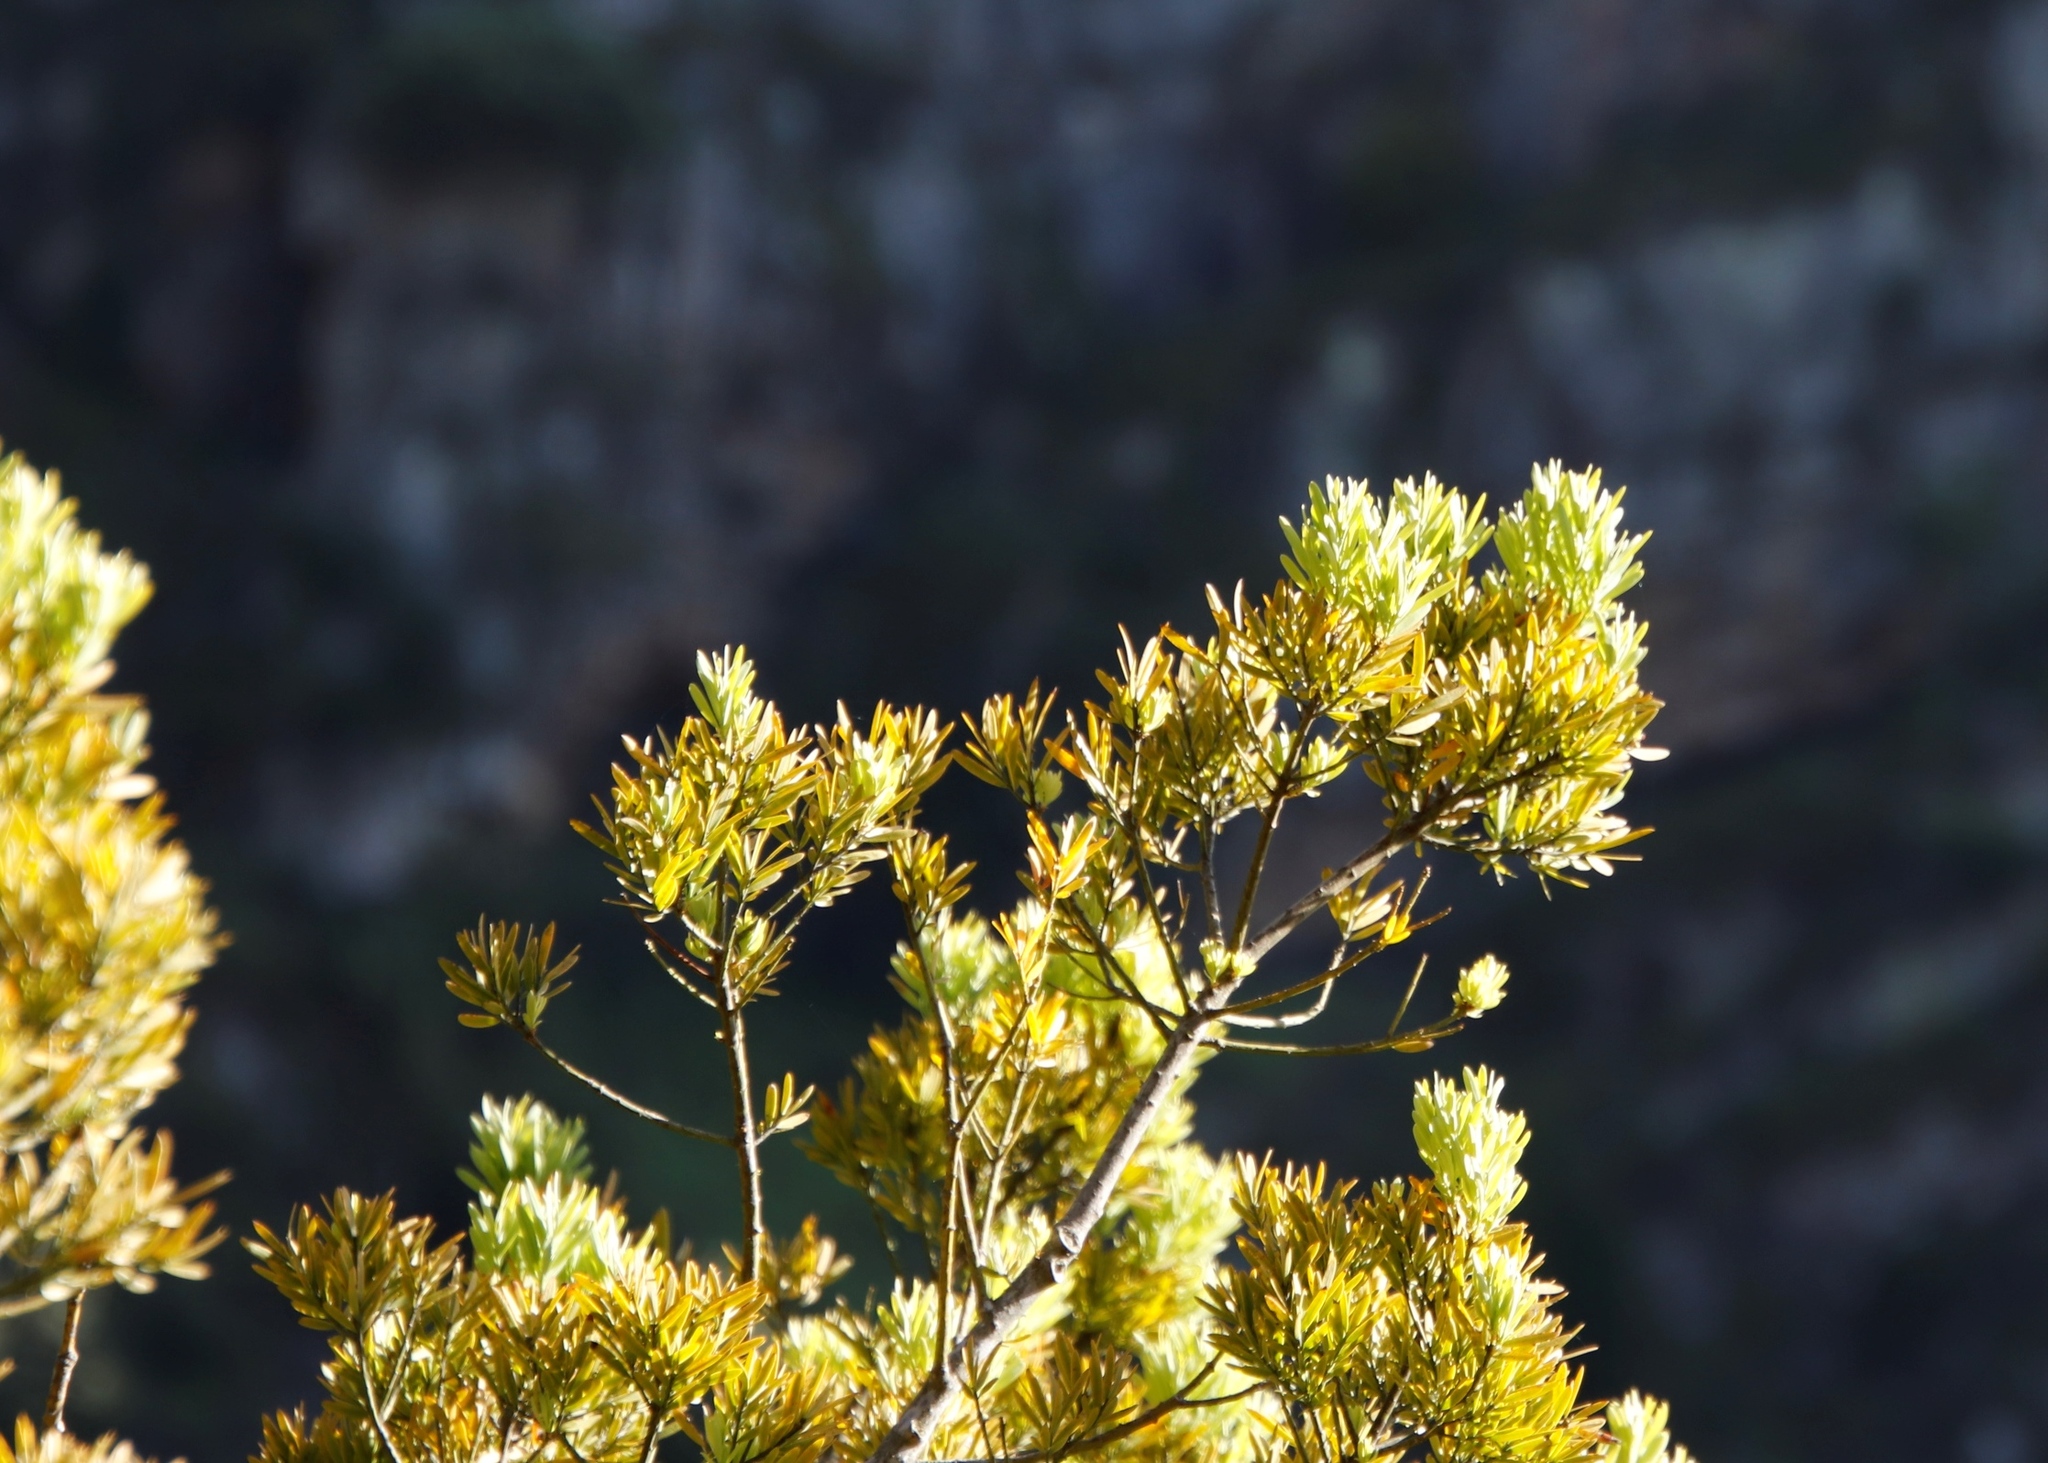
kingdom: Plantae
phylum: Tracheophyta
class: Pinopsida
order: Pinales
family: Podocarpaceae
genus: Afrocarpus
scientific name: Afrocarpus falcatus
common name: Bastard yellowwood
